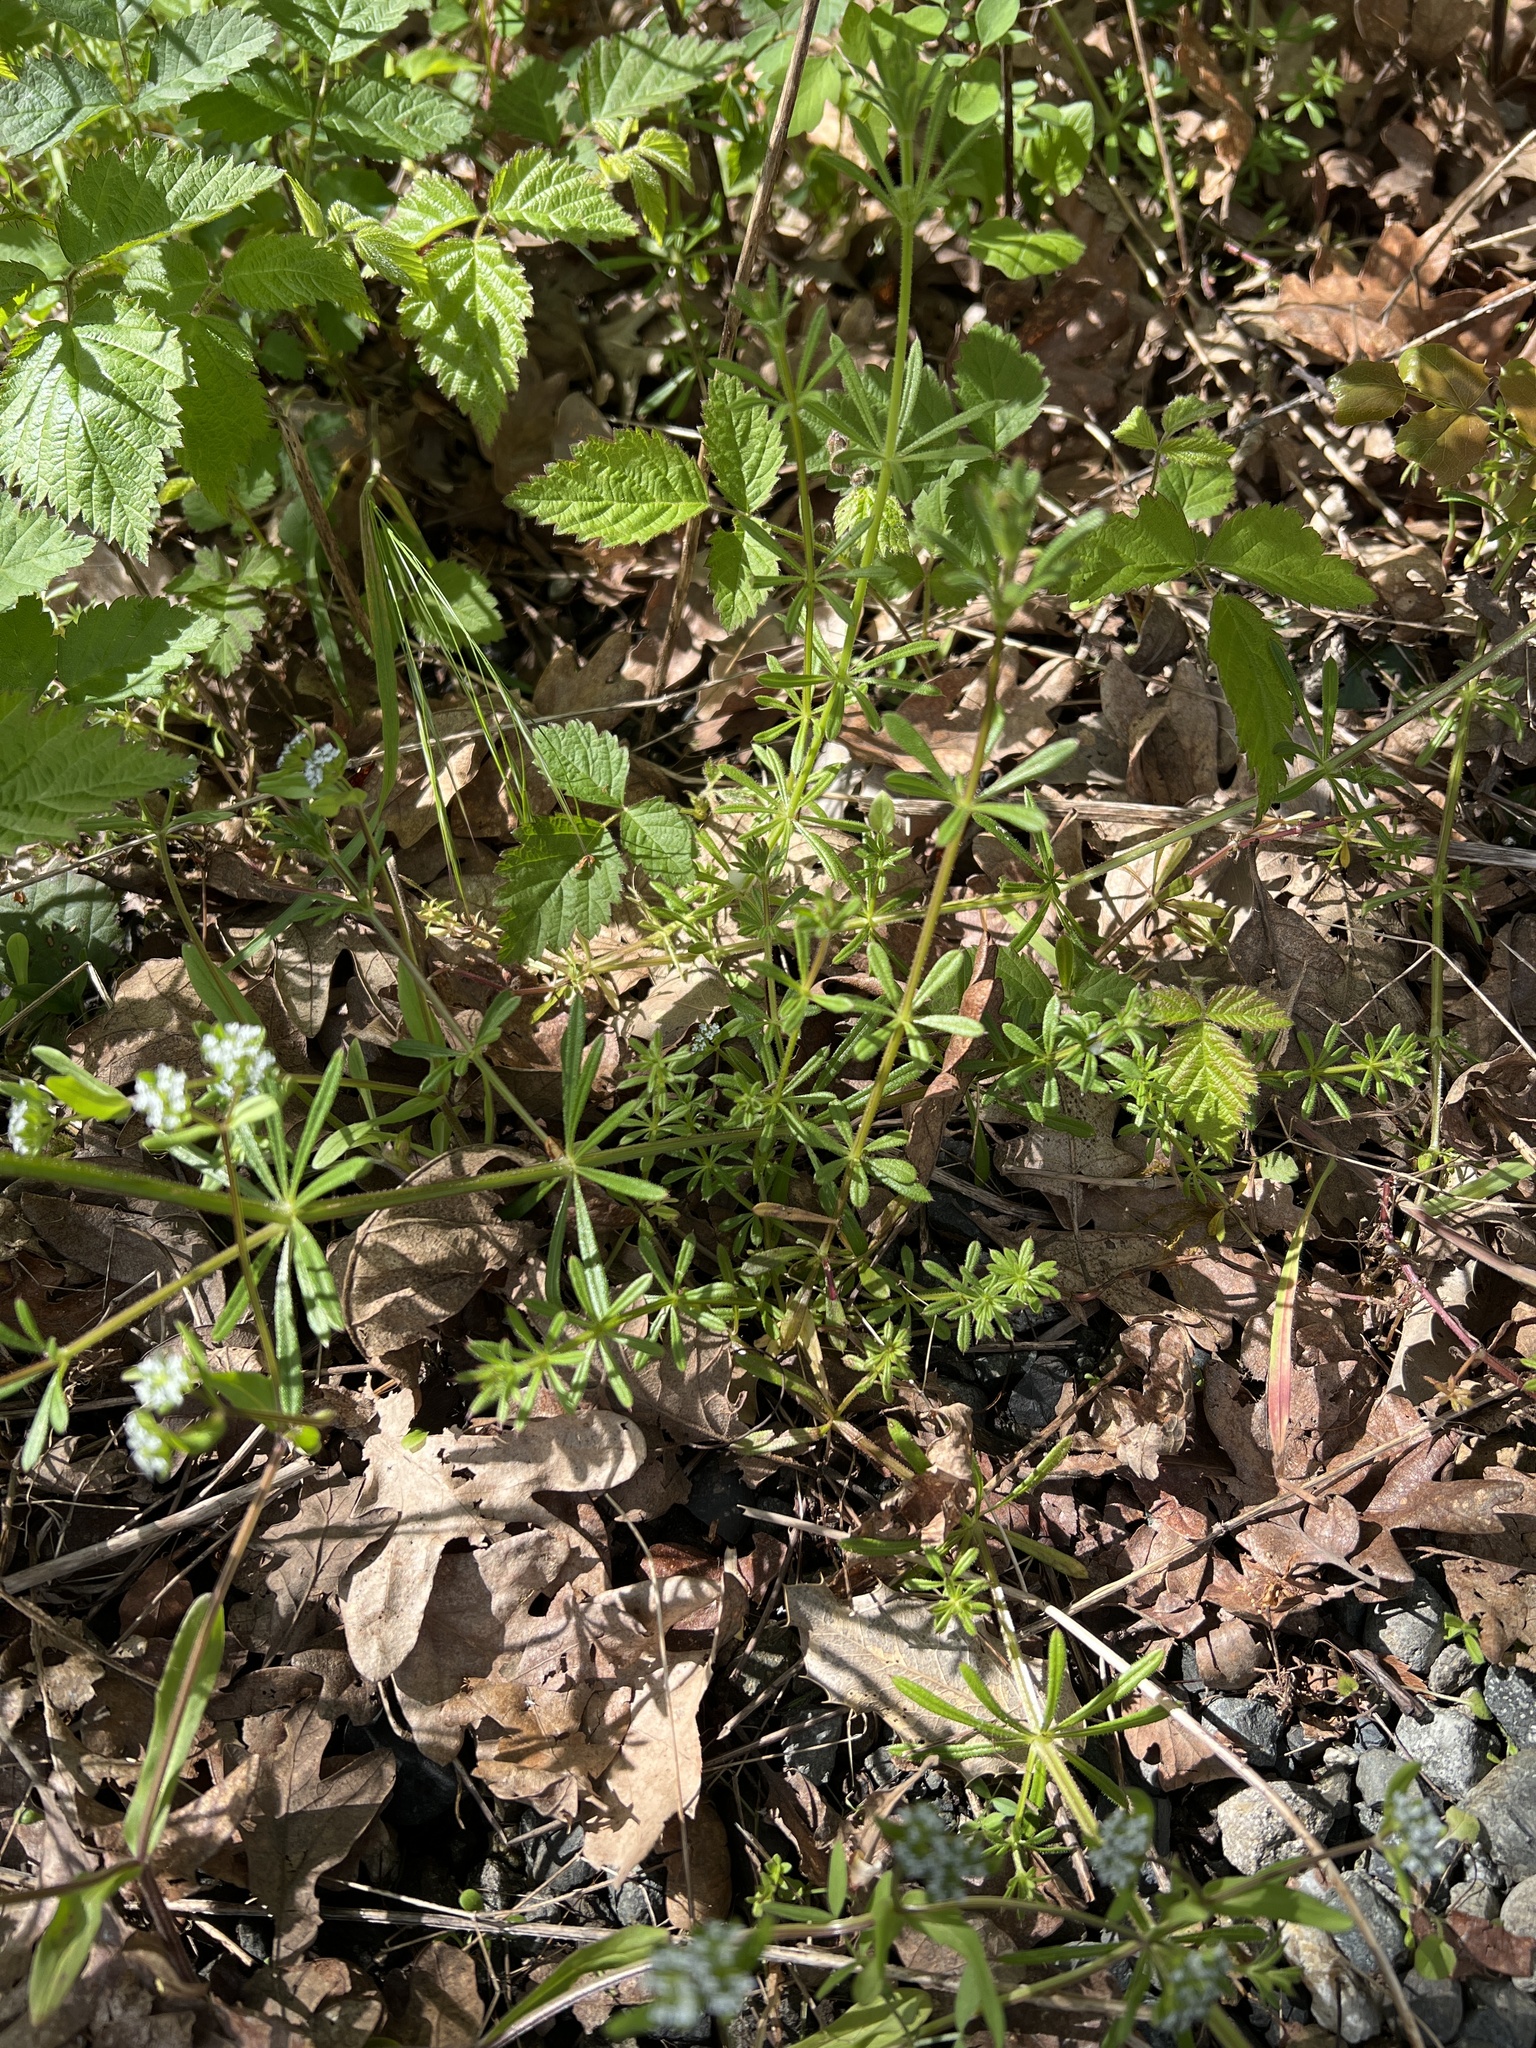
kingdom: Plantae
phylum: Tracheophyta
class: Magnoliopsida
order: Gentianales
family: Rubiaceae
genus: Galium
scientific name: Galium aparine
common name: Cleavers
